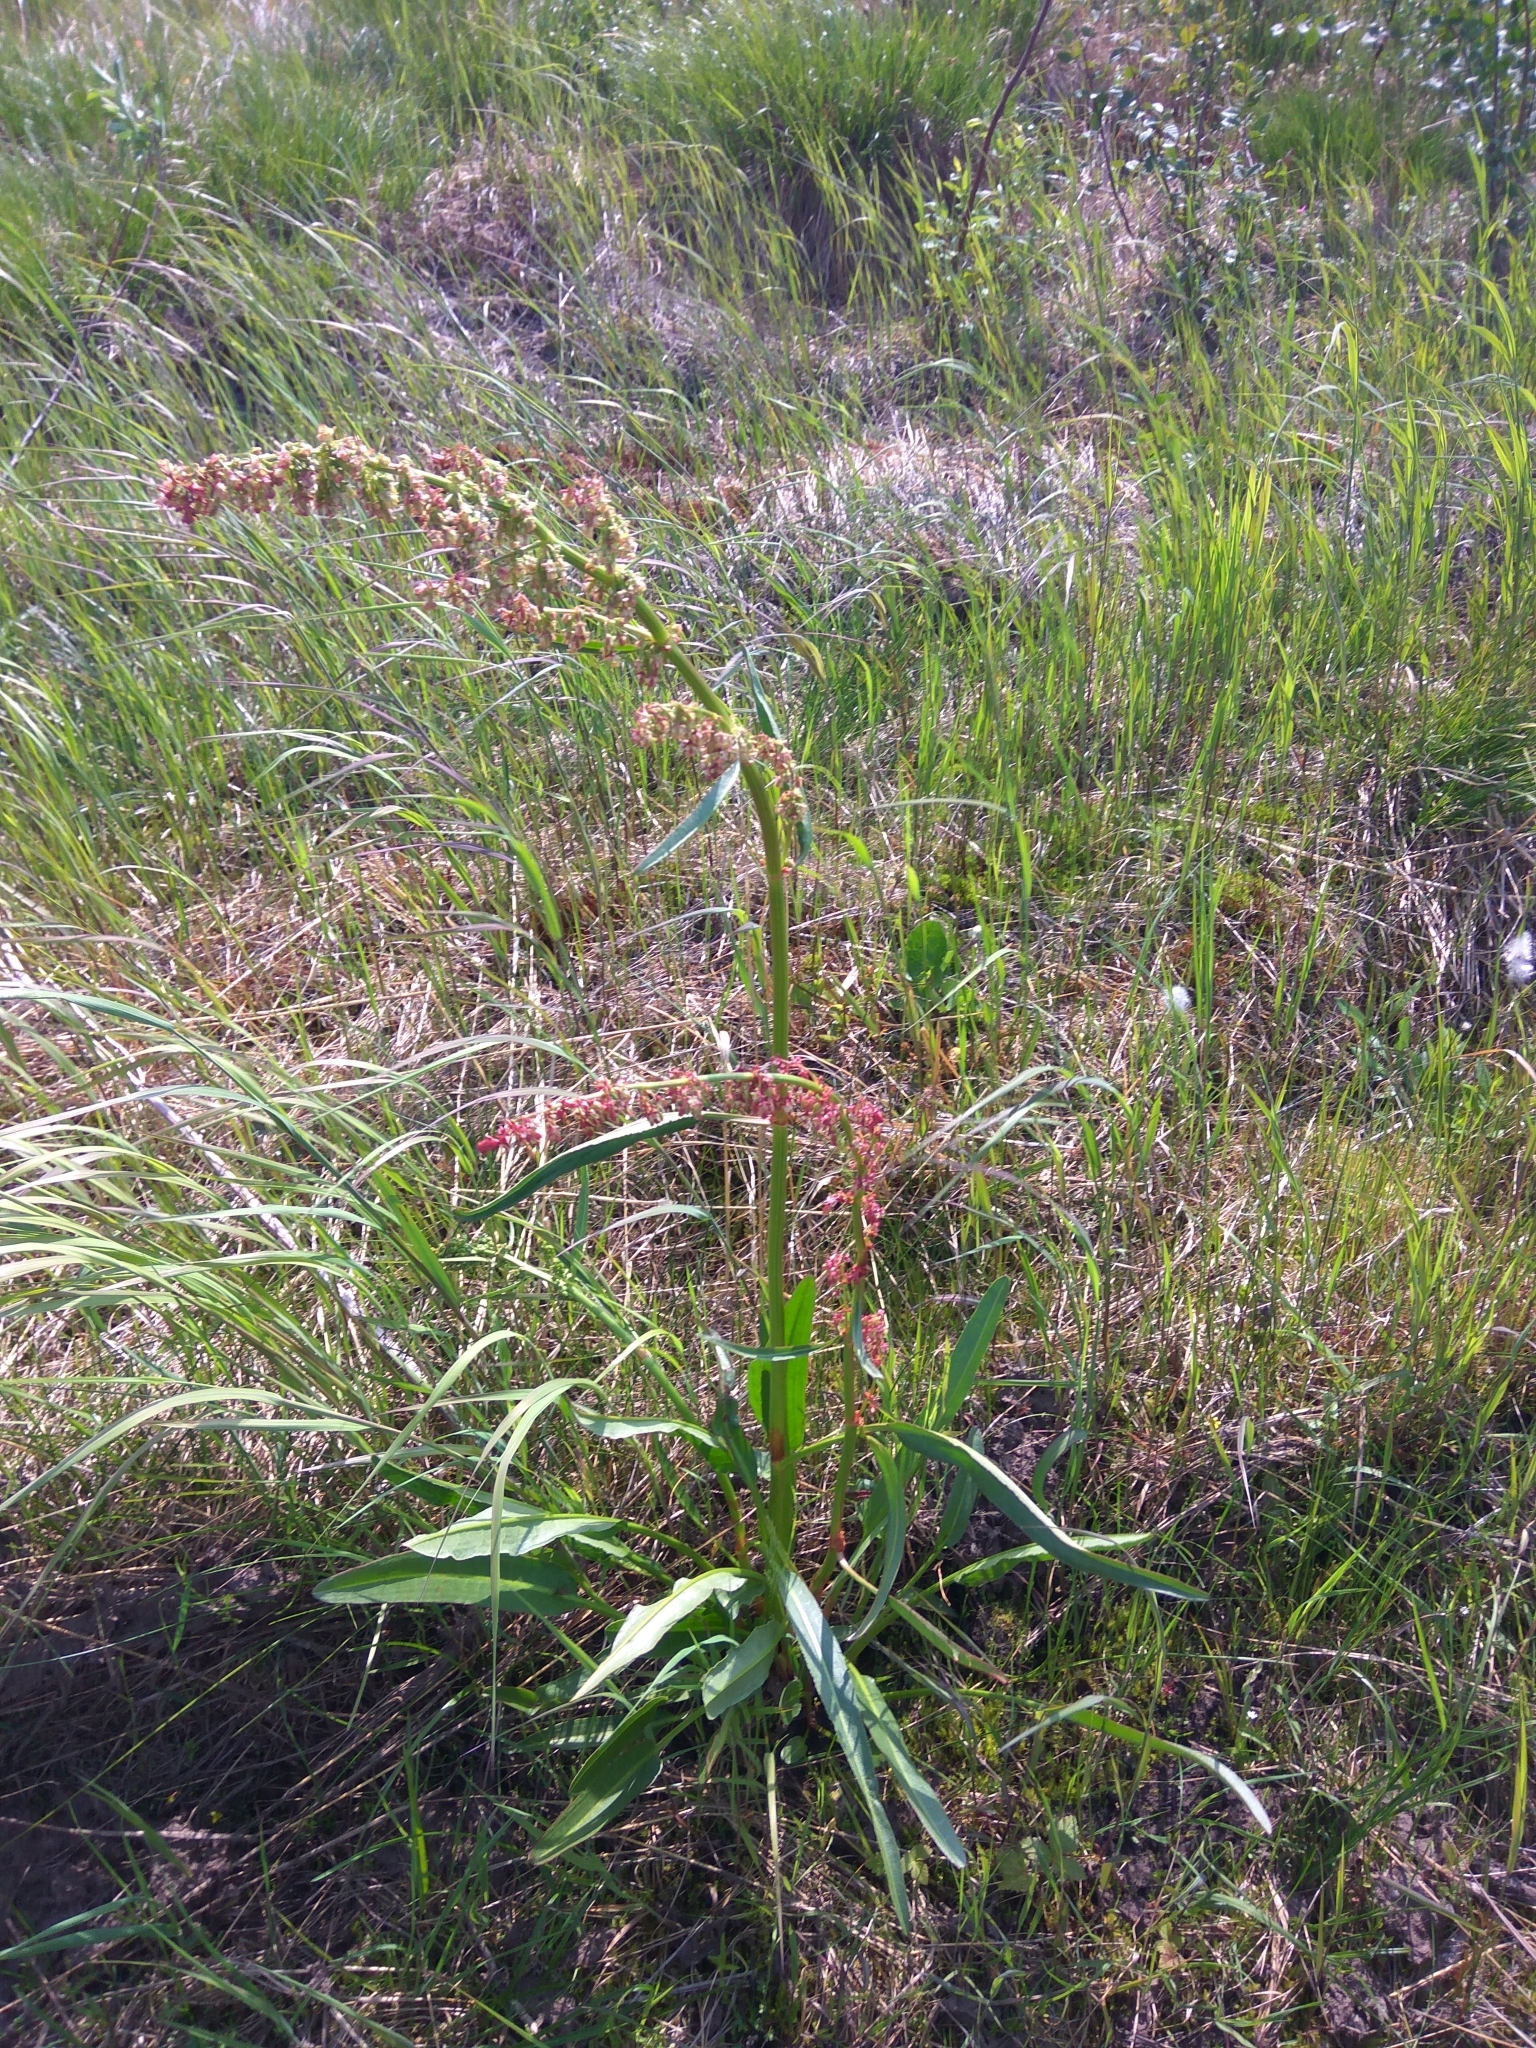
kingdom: Plantae
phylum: Tracheophyta
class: Magnoliopsida
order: Caryophyllales
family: Polygonaceae
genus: Rumex
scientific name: Rumex arcticus
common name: Arctic dock
